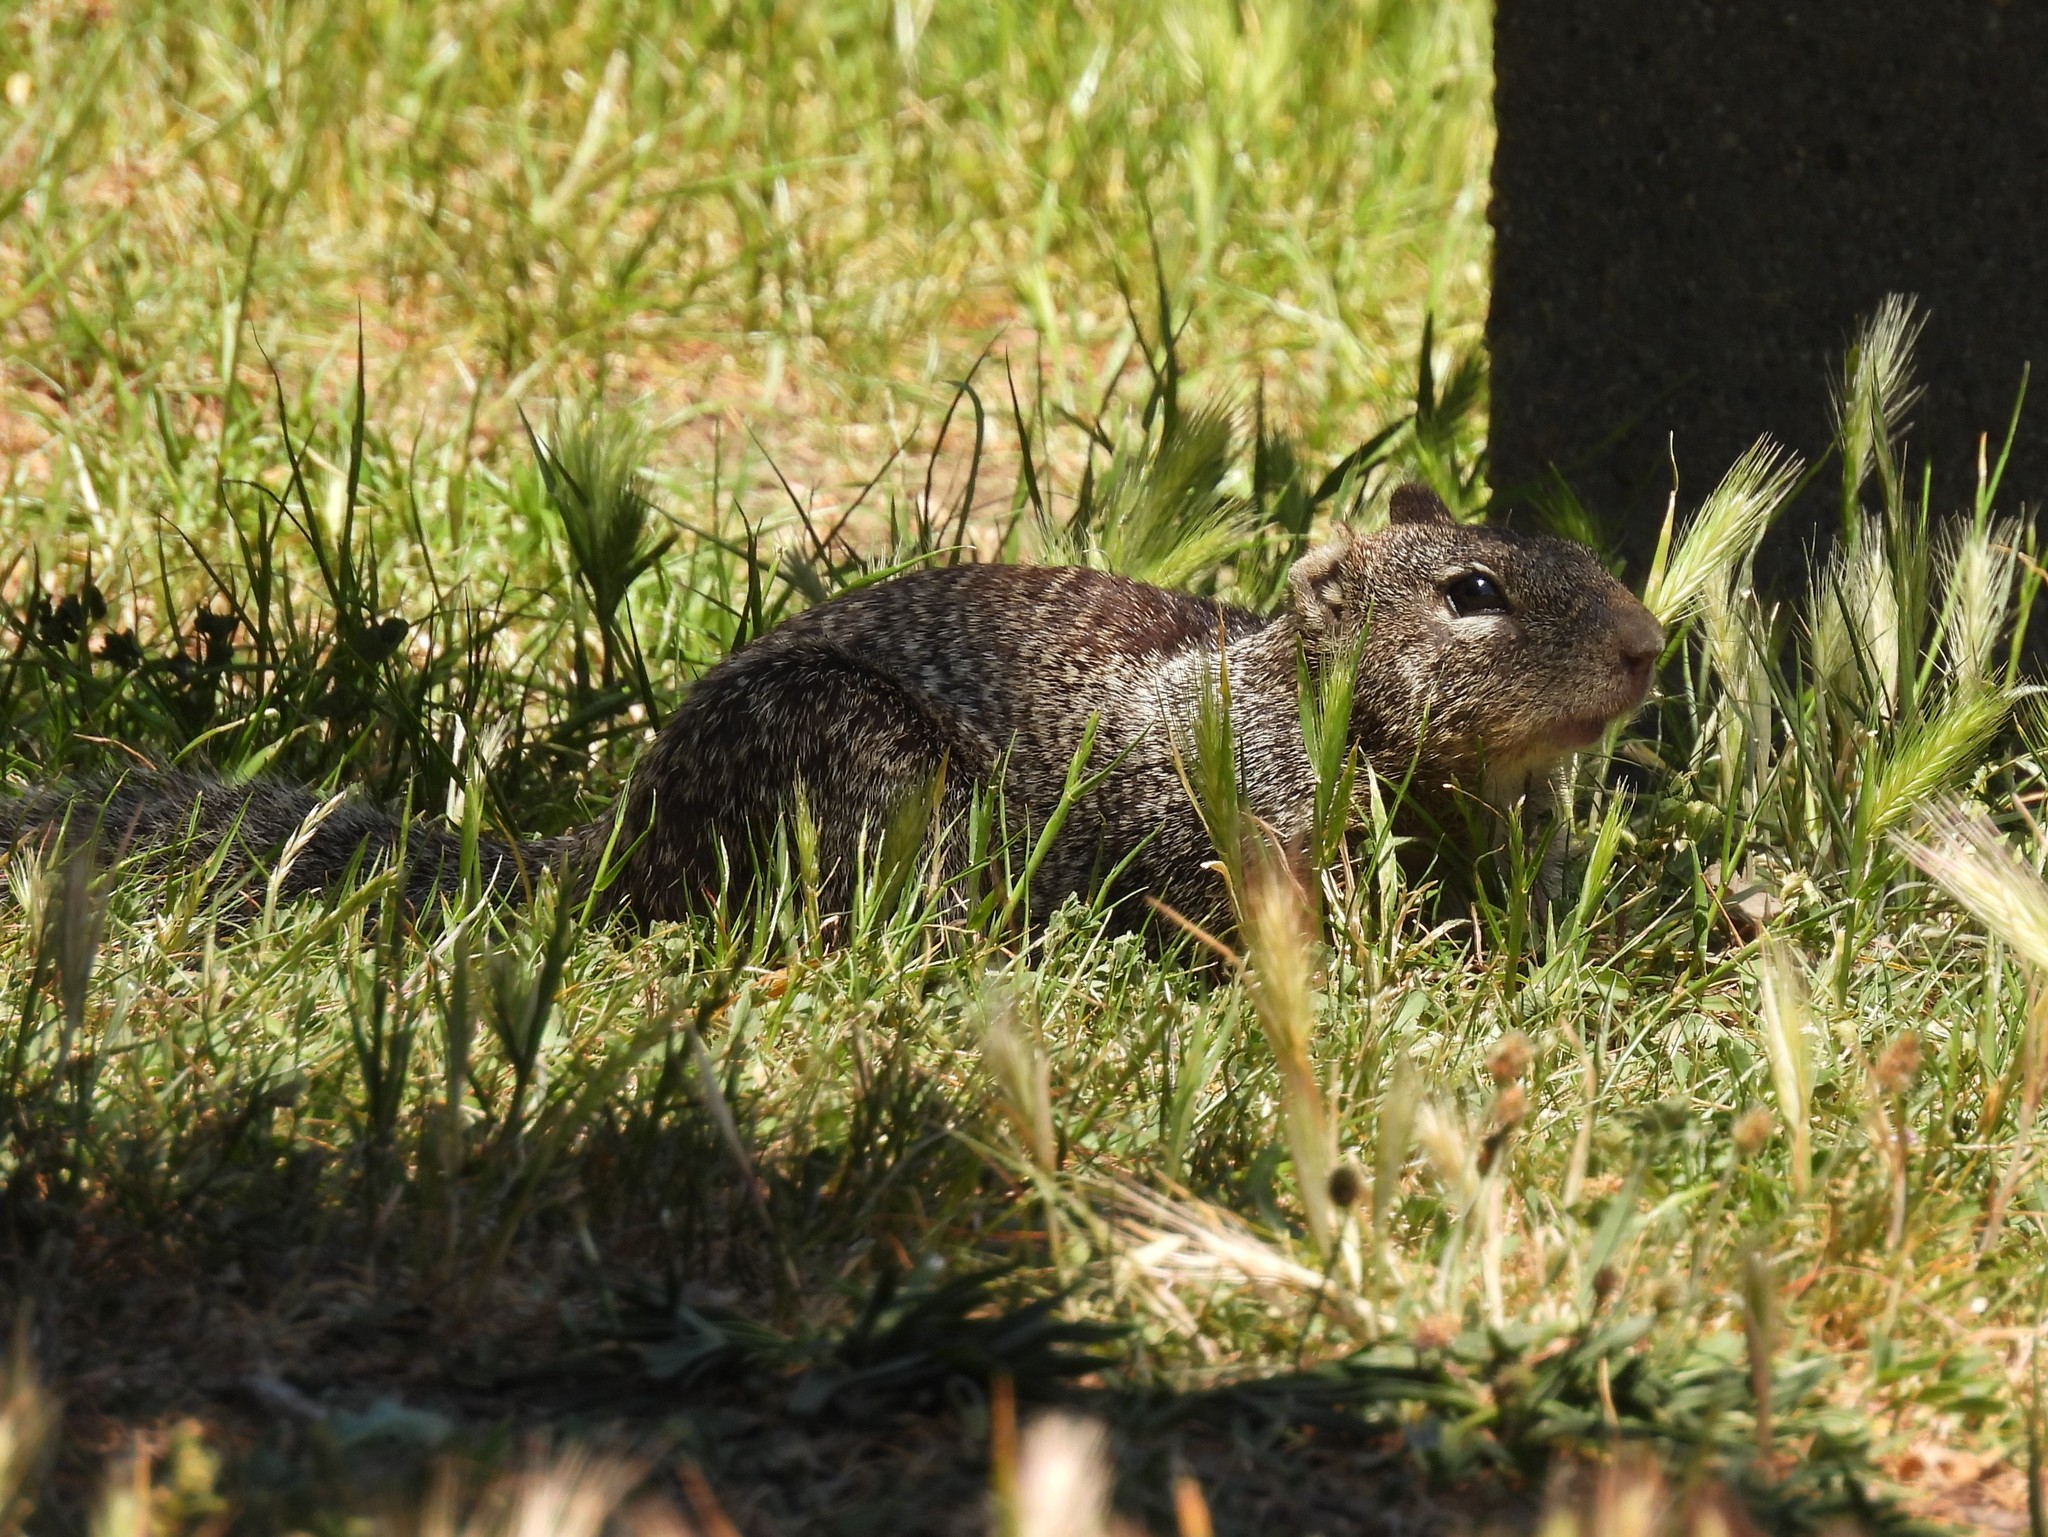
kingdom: Animalia
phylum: Chordata
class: Mammalia
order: Rodentia
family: Sciuridae
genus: Otospermophilus
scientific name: Otospermophilus beecheyi
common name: California ground squirrel
